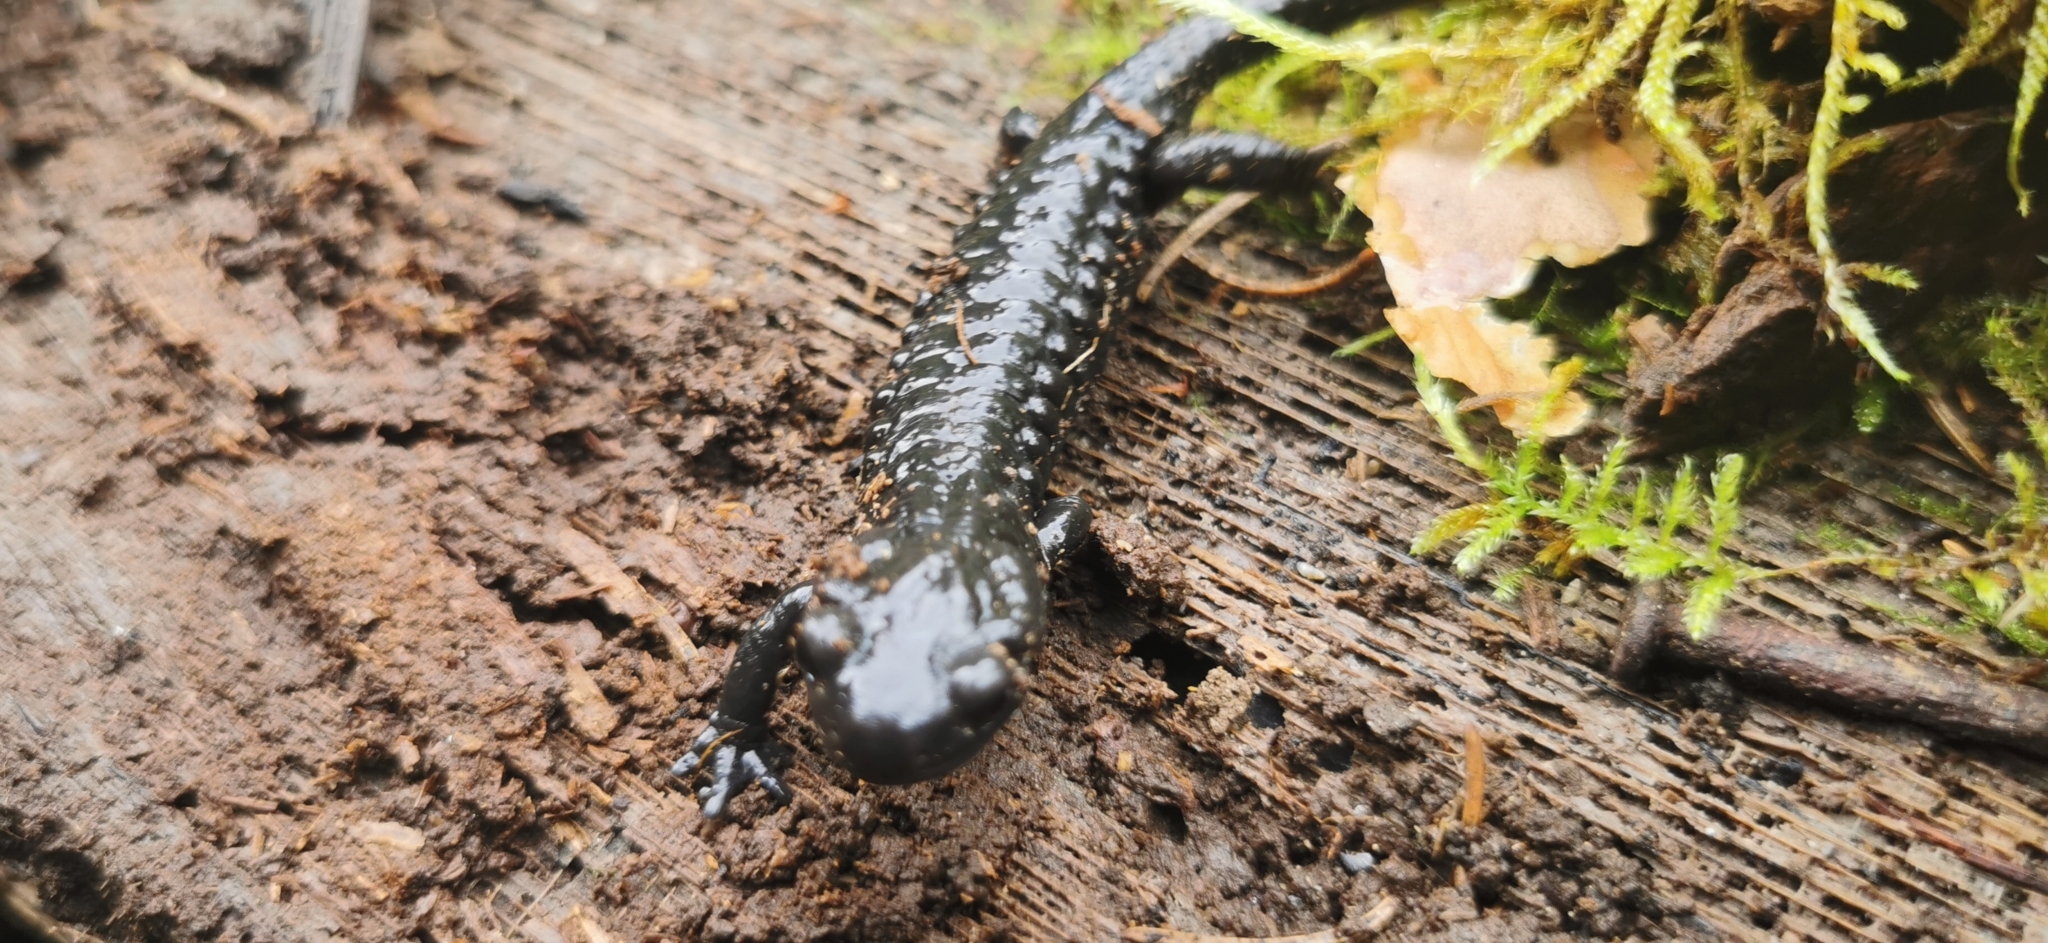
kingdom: Animalia
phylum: Chordata
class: Amphibia
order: Caudata
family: Salamandridae
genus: Salamandra
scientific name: Salamandra atra
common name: Alpine salamander
